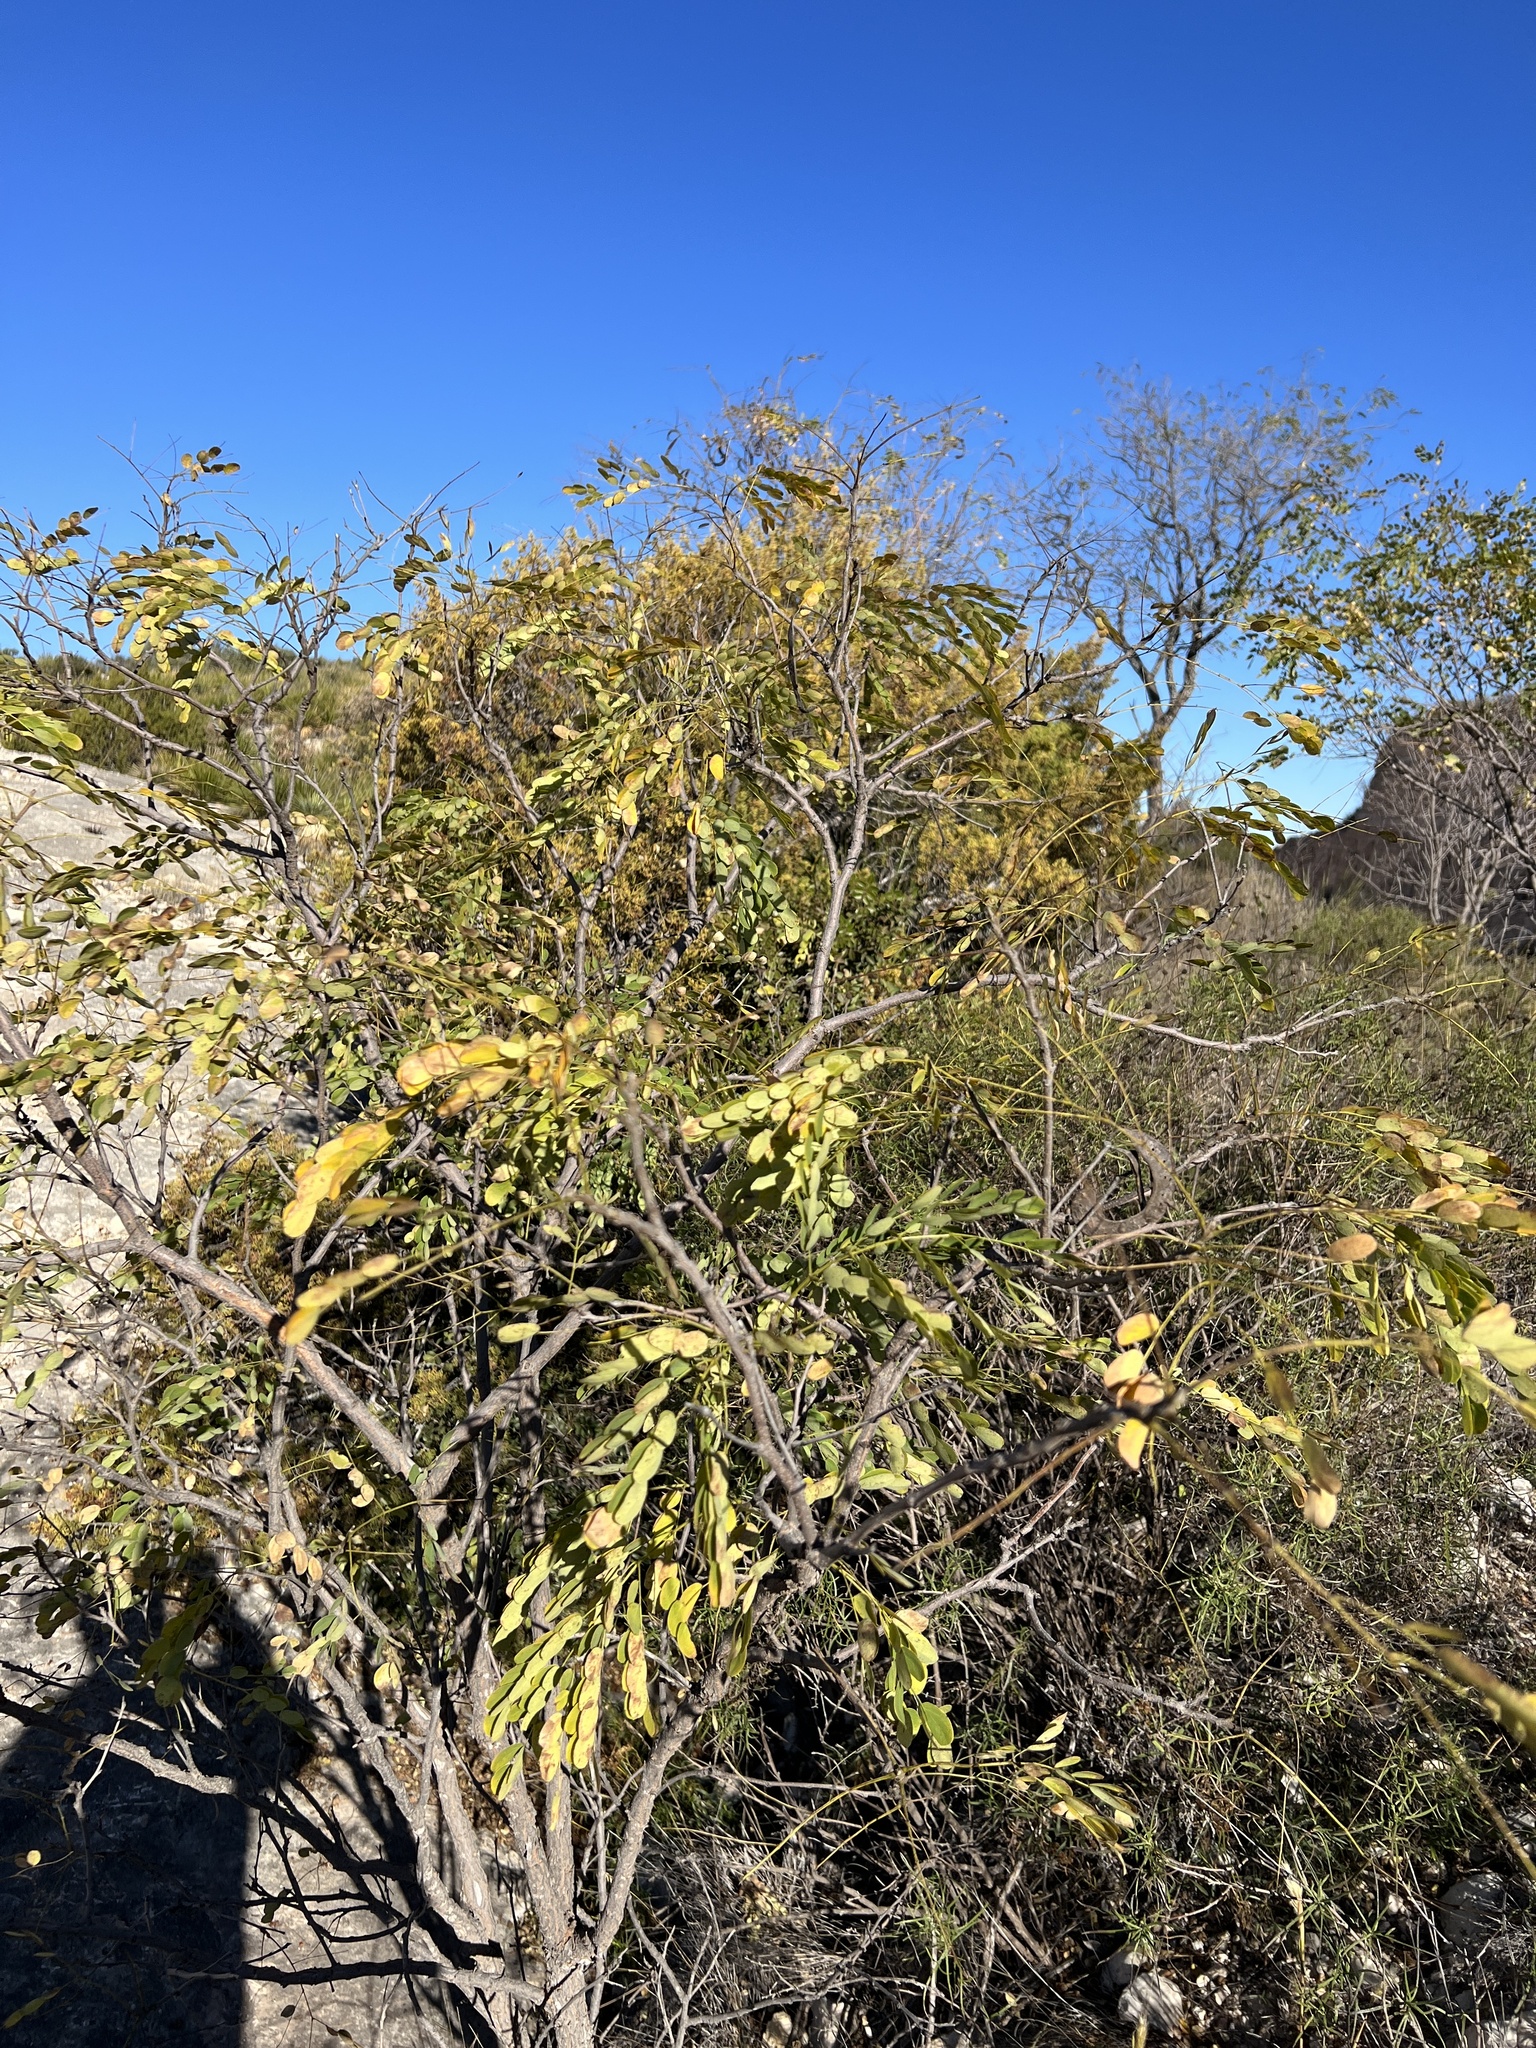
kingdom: Plantae
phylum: Tracheophyta
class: Magnoliopsida
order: Fabales
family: Fabaceae
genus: Leucaena
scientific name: Leucaena retusa
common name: Littleleaf leadtree
